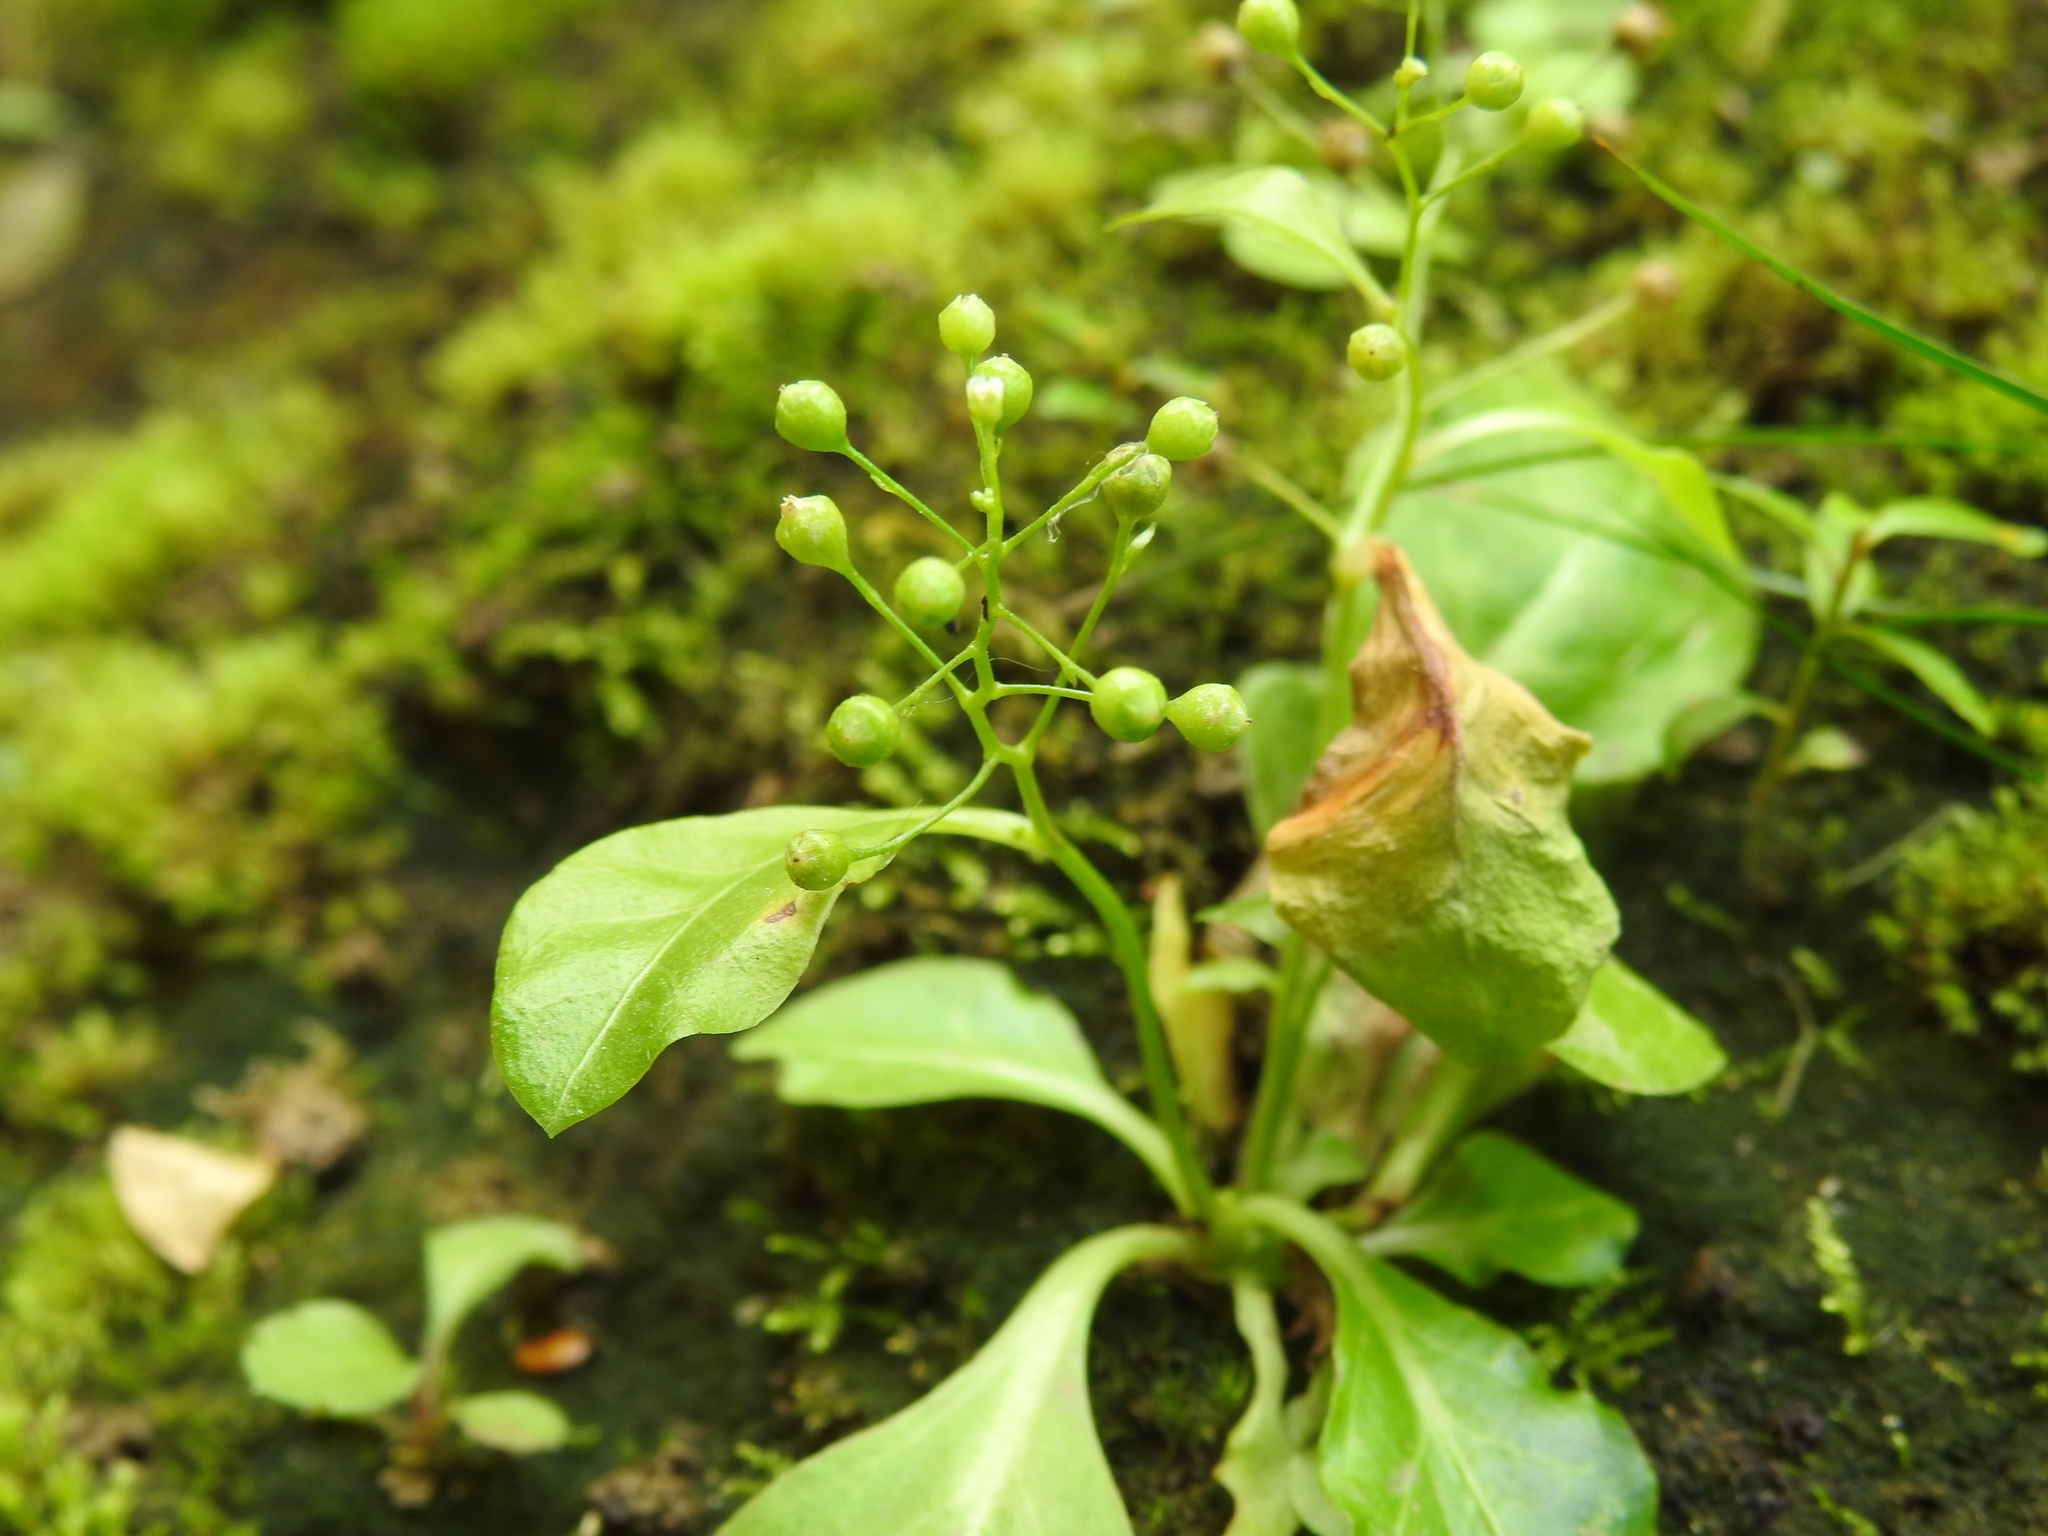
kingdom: Plantae
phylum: Tracheophyta
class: Magnoliopsida
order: Ericales
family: Primulaceae
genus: Samolus
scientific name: Samolus parviflorus
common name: False water pimpernel
